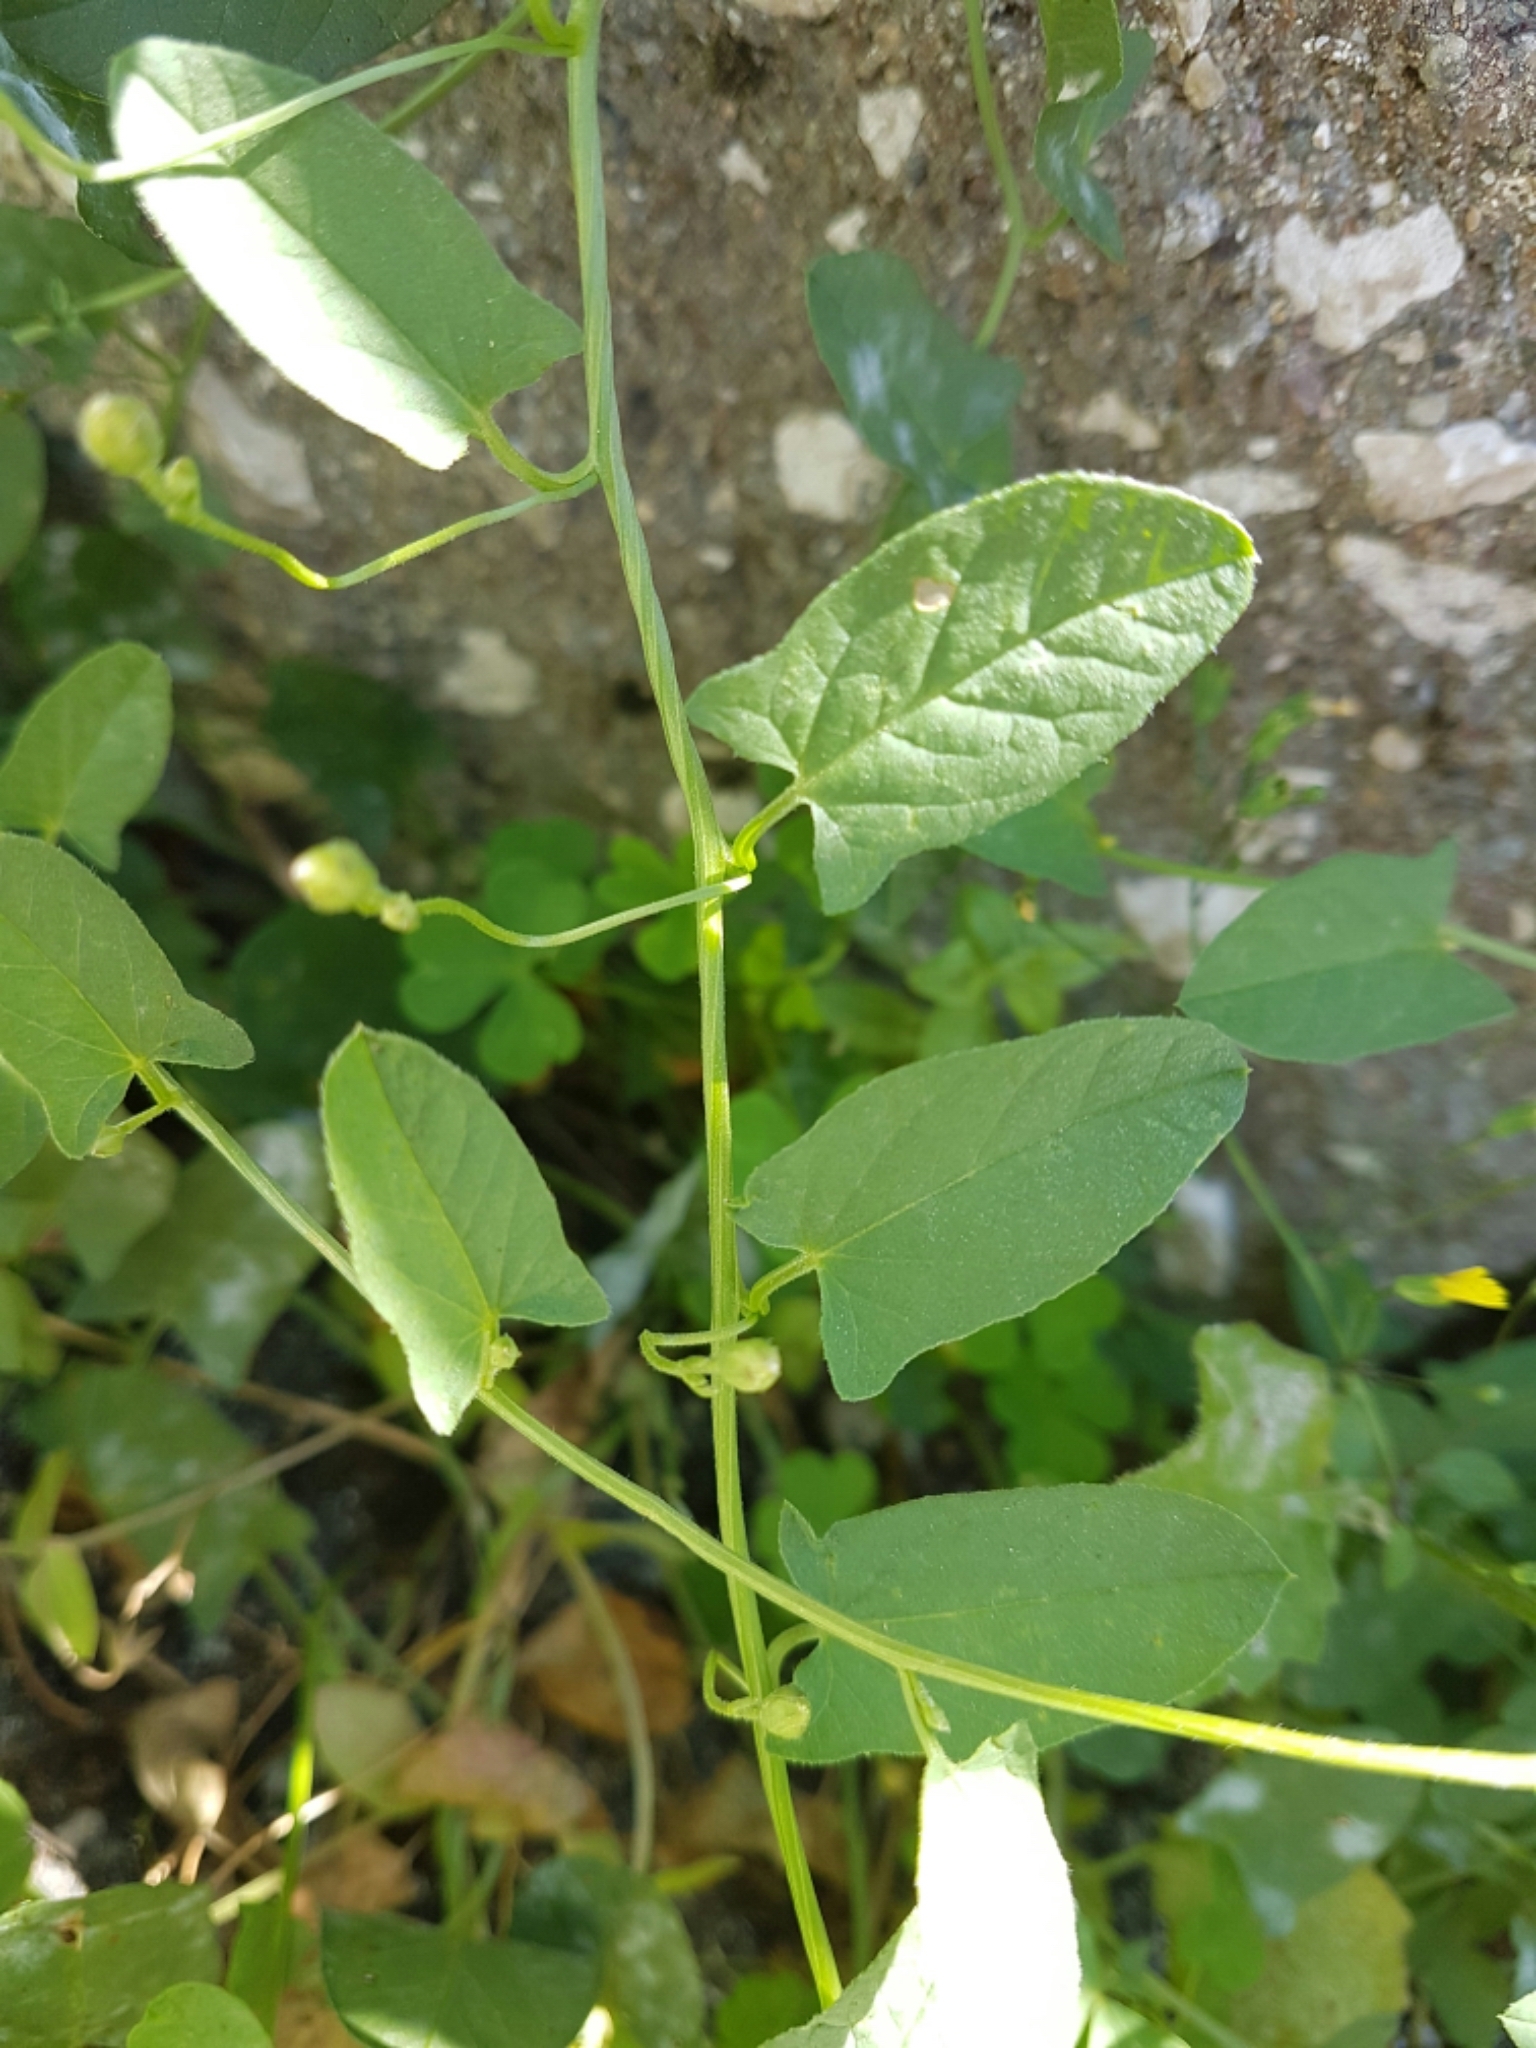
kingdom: Plantae
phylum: Tracheophyta
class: Magnoliopsida
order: Solanales
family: Convolvulaceae
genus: Convolvulus
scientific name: Convolvulus arvensis
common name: Field bindweed
